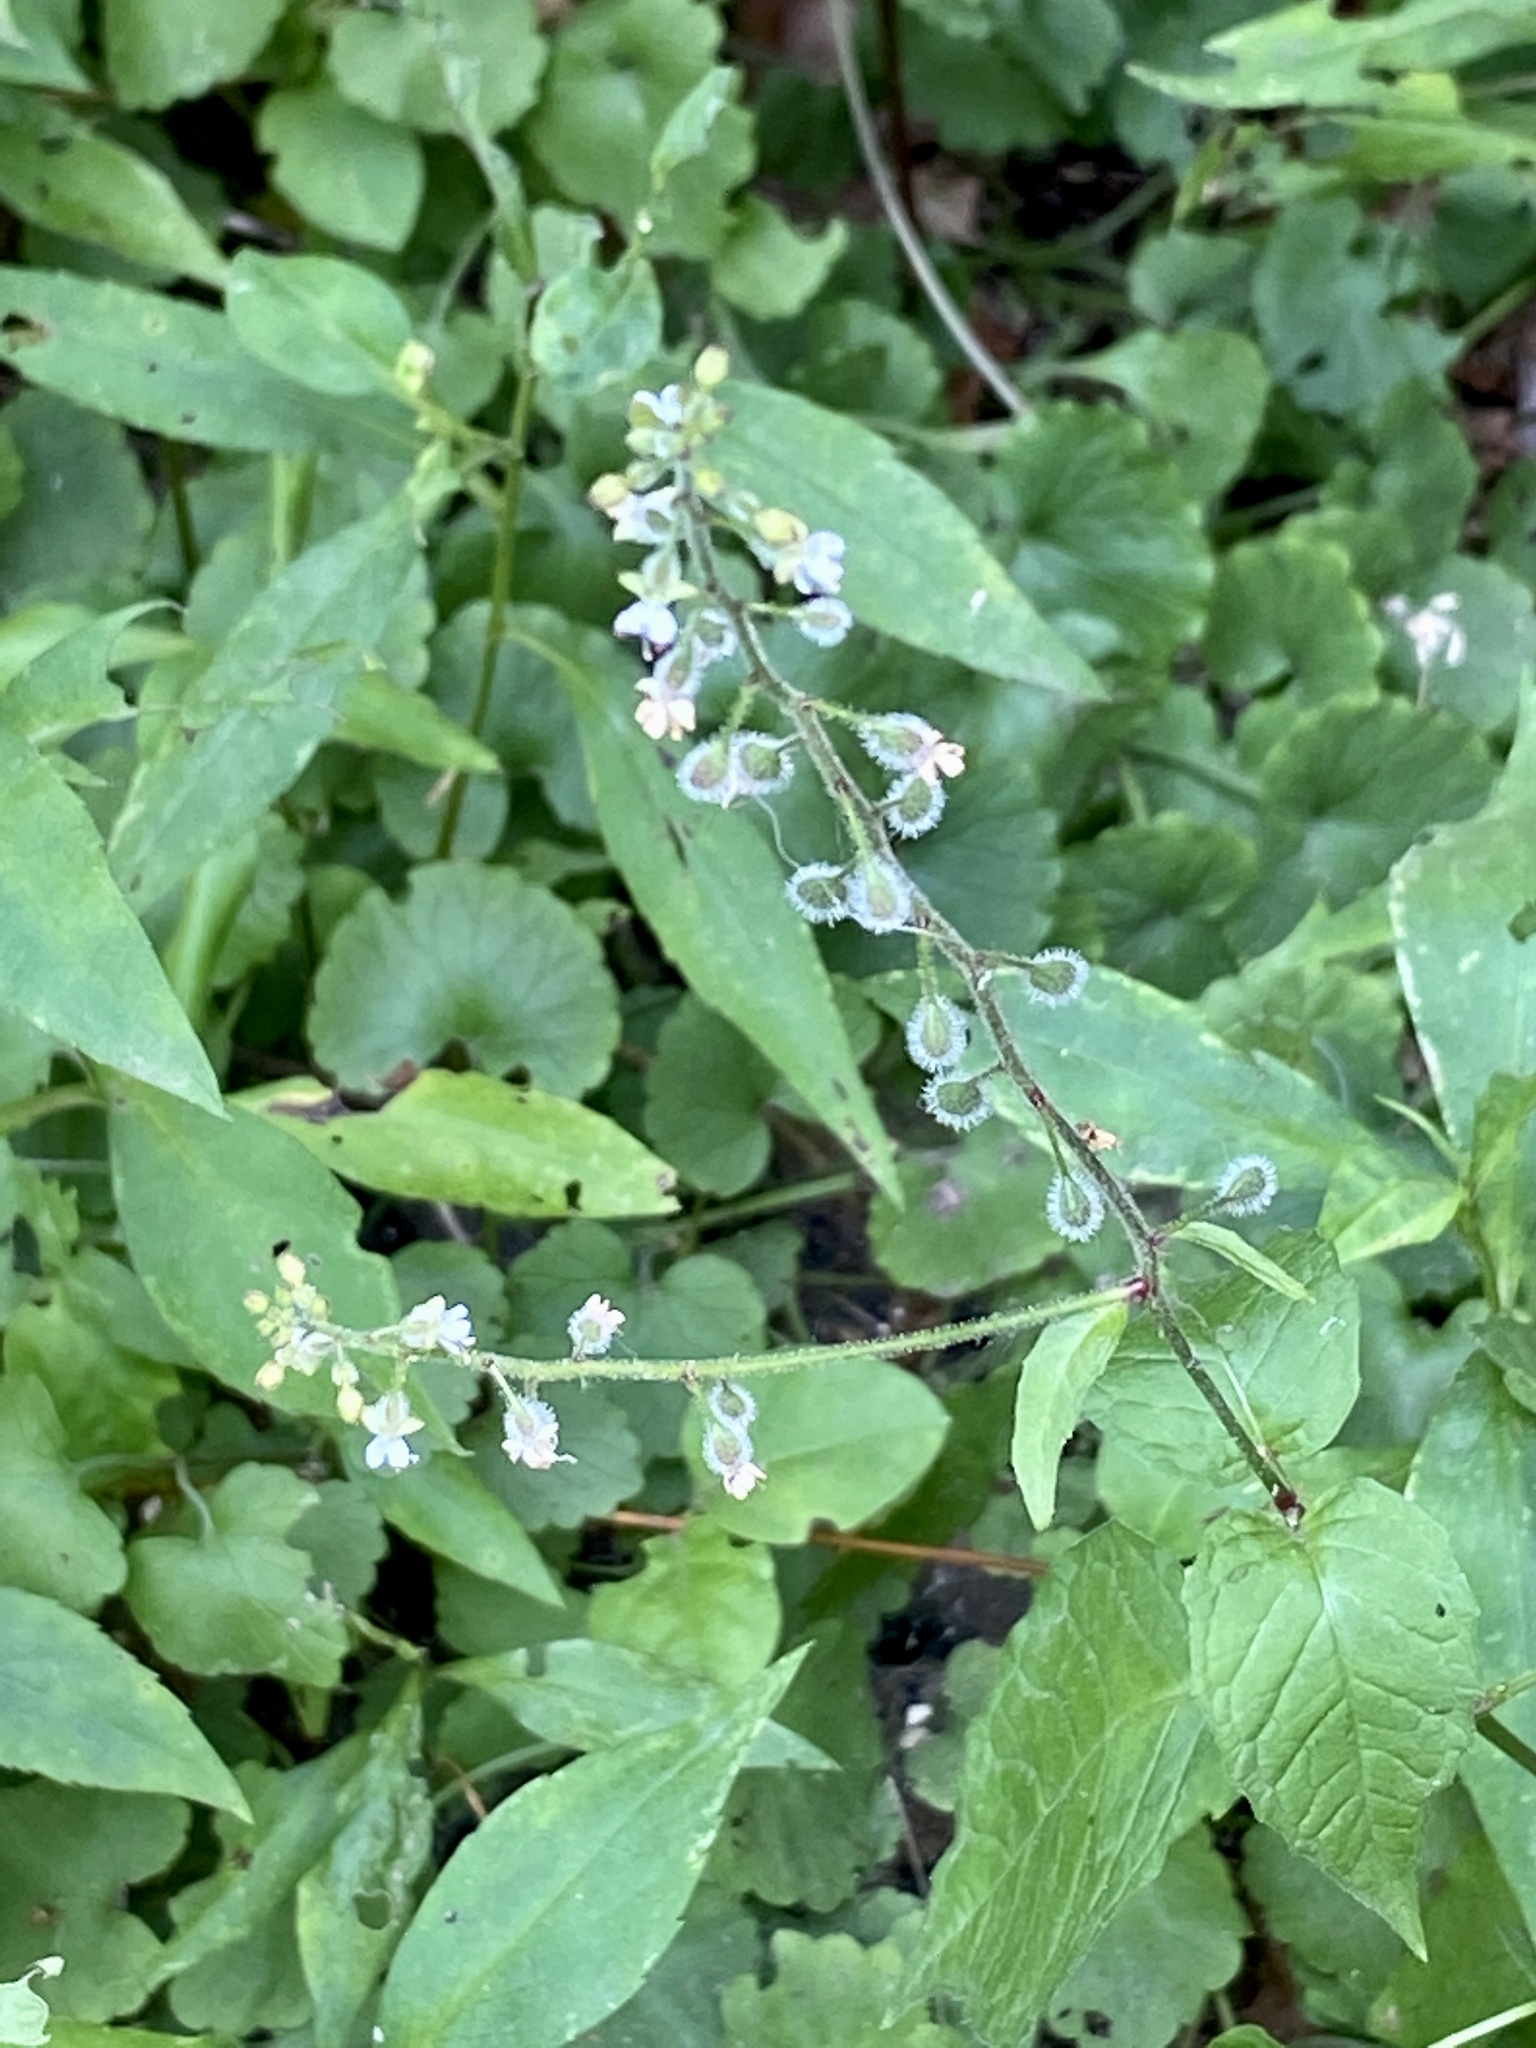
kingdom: Plantae
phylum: Tracheophyta
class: Magnoliopsida
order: Myrtales
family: Onagraceae
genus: Circaea
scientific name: Circaea canadensis
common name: Broad-leaved enchanter's nightshade
